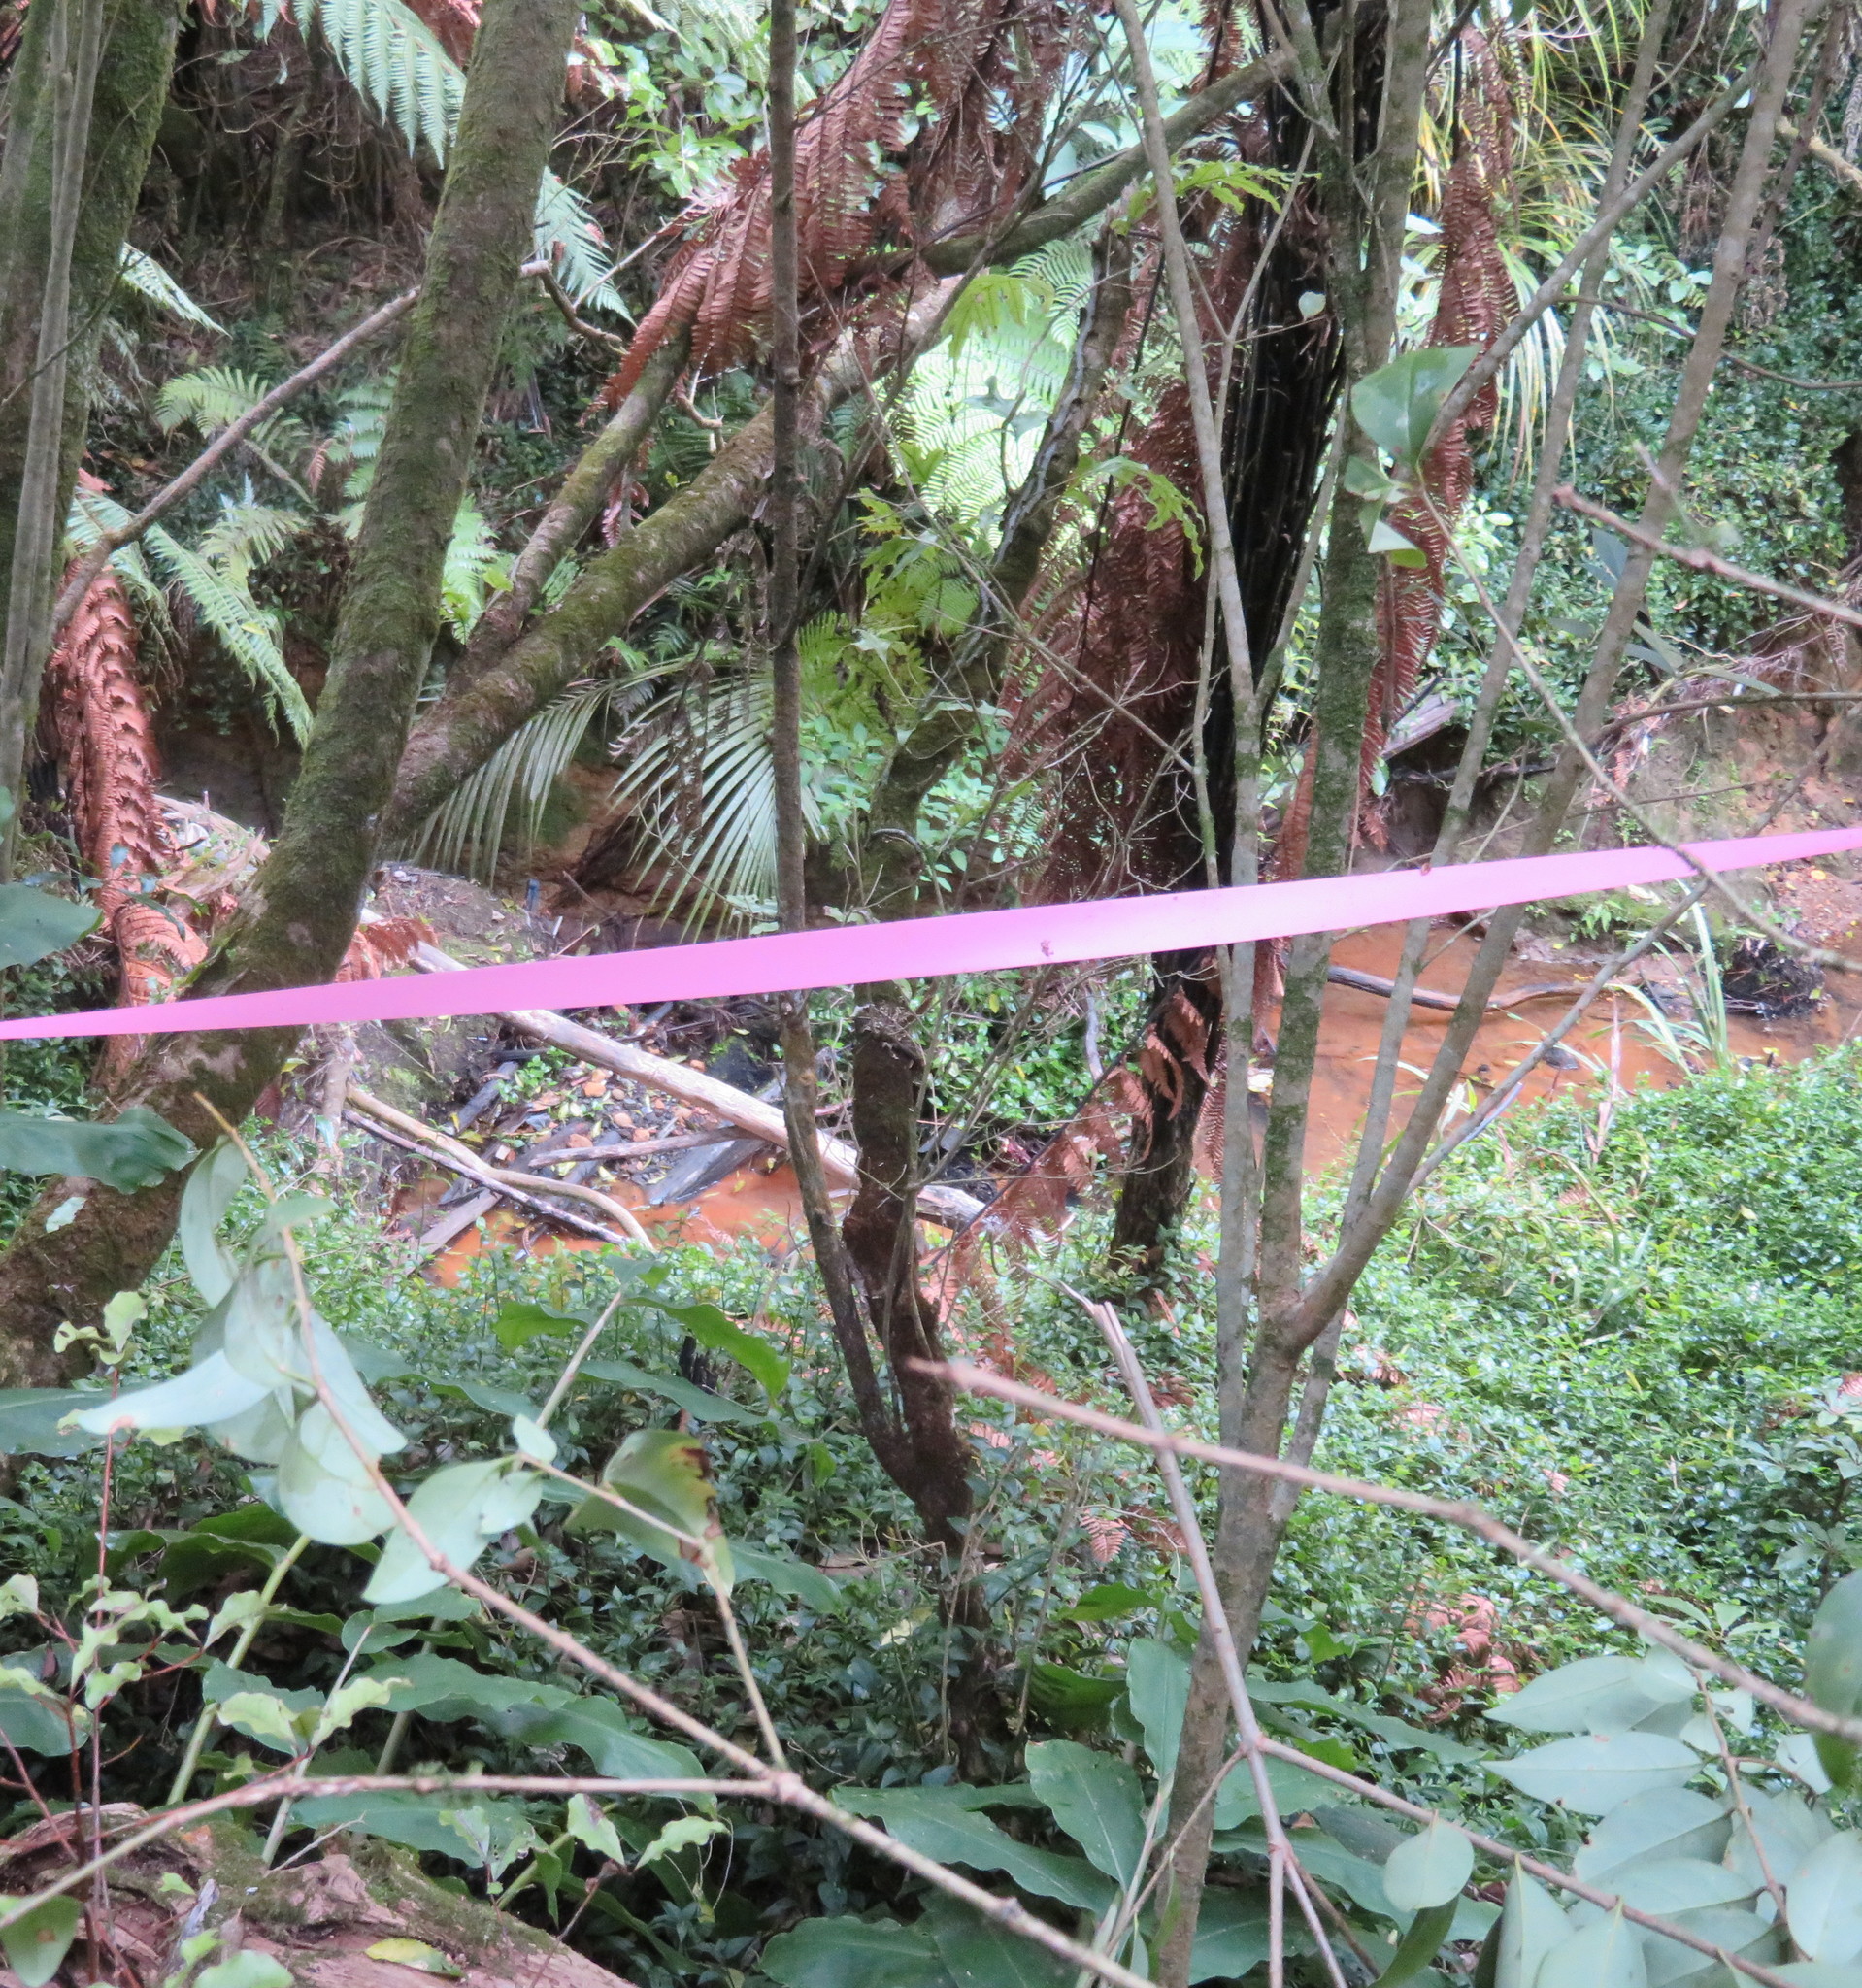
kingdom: Plantae
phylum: Tracheophyta
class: Liliopsida
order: Commelinales
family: Commelinaceae
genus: Tradescantia
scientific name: Tradescantia fluminensis
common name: Wandering-jew
